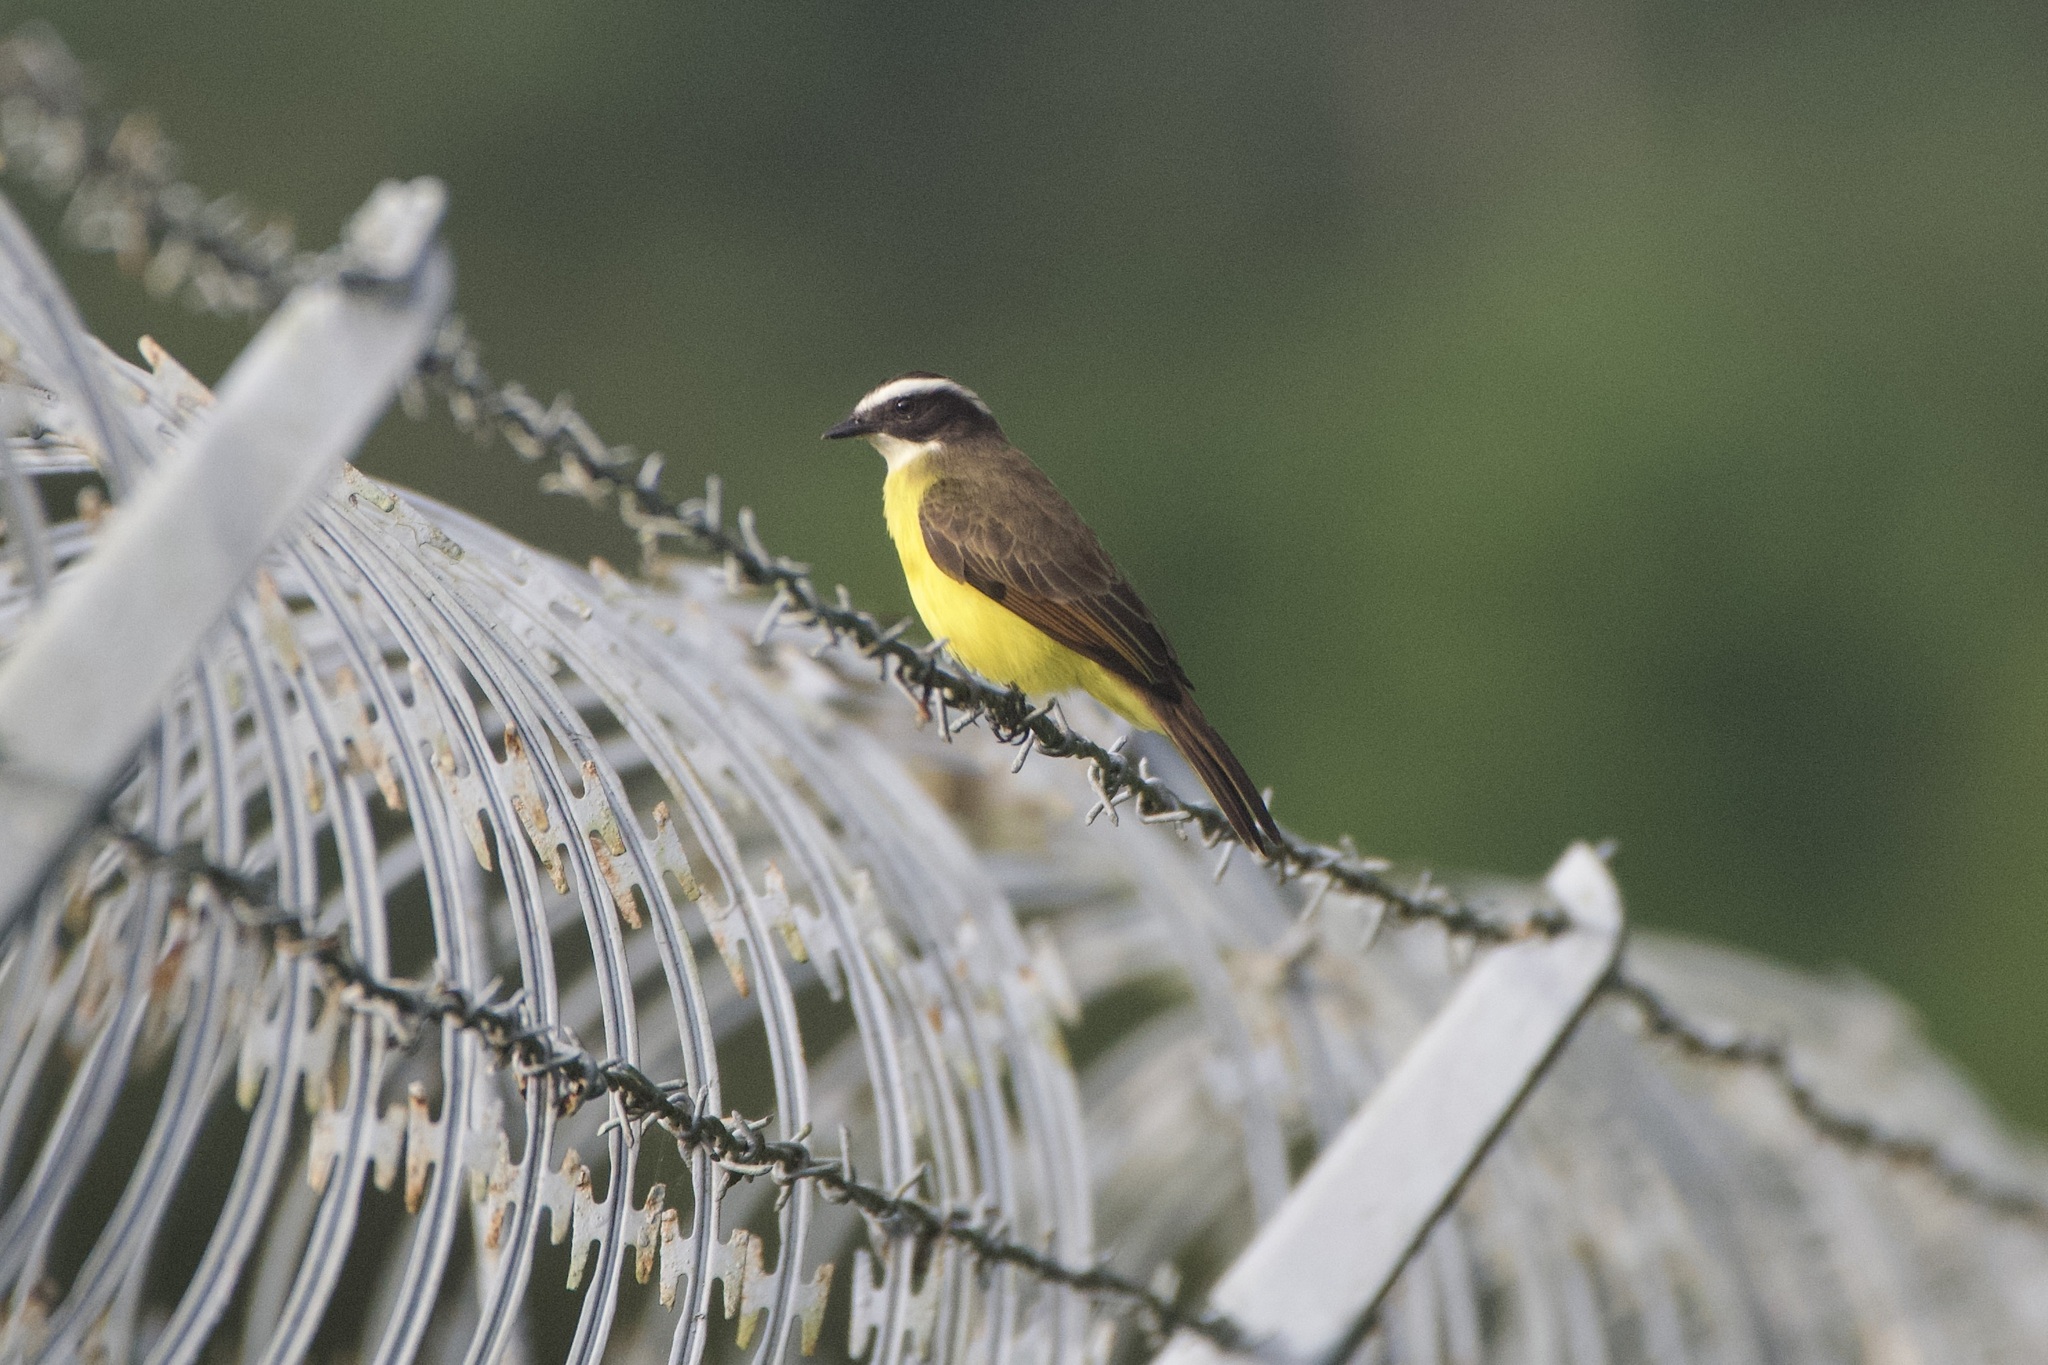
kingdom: Animalia
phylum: Chordata
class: Aves
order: Passeriformes
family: Tyrannidae
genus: Myiozetetes
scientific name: Myiozetetes cayanensis
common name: Rusty-margined flycatcher
